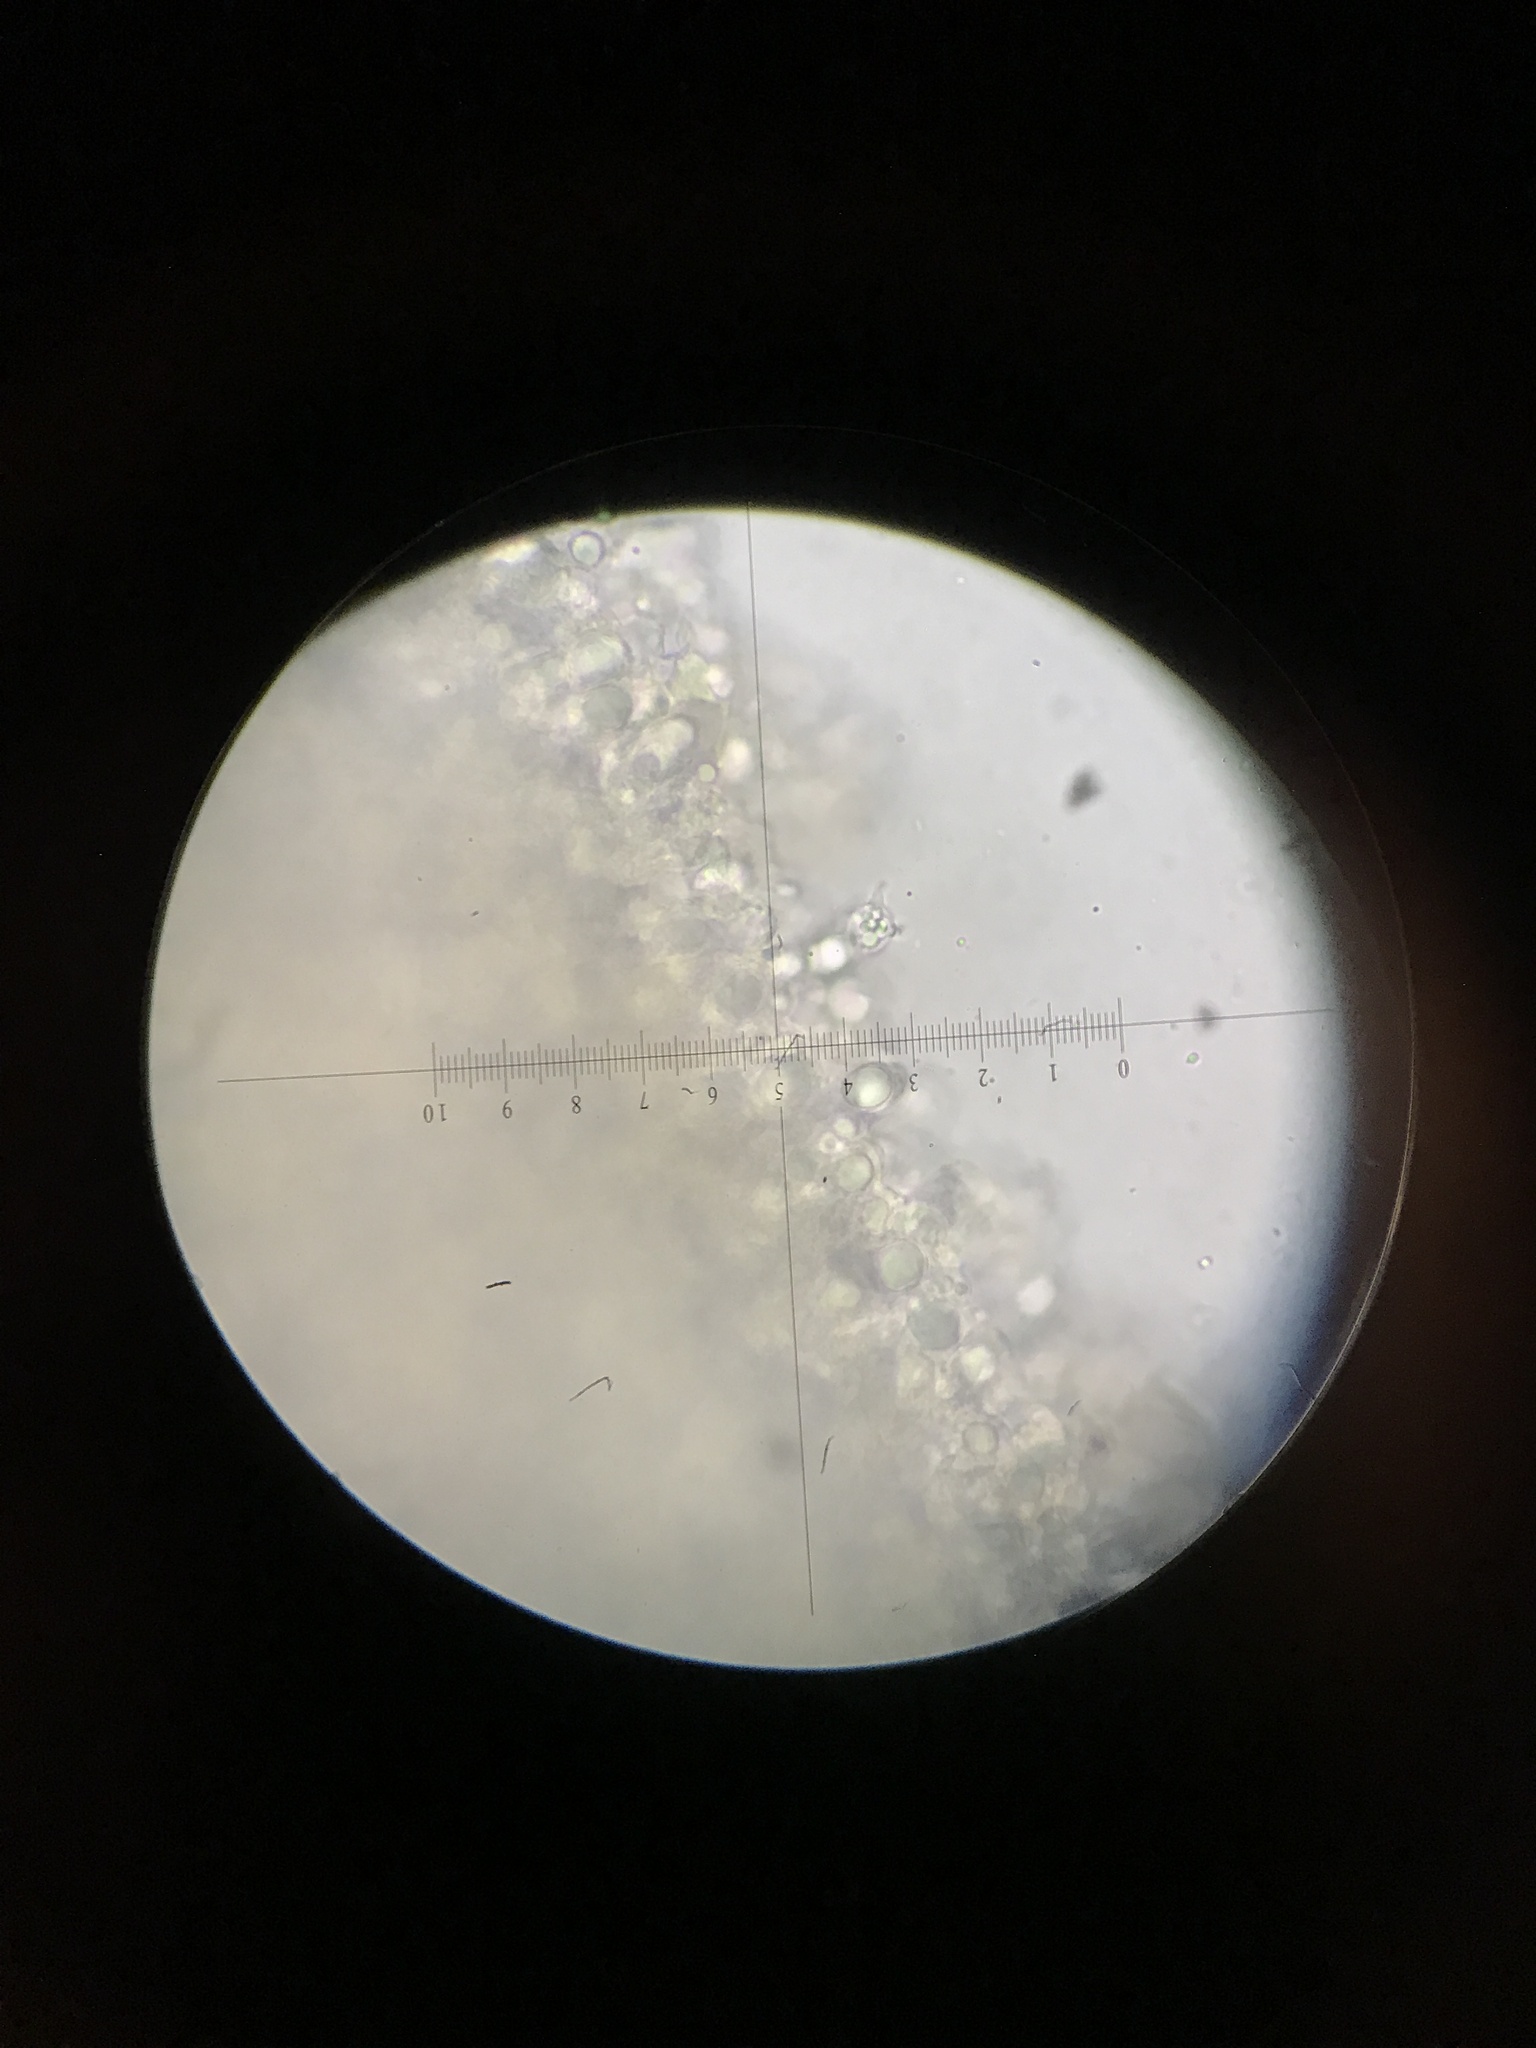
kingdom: Fungi
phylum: Basidiomycota
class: Agaricomycetes
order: Cantharellales
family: Hydnaceae
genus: Clavulina
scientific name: Clavulina rugosa
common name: Wrinkled club
